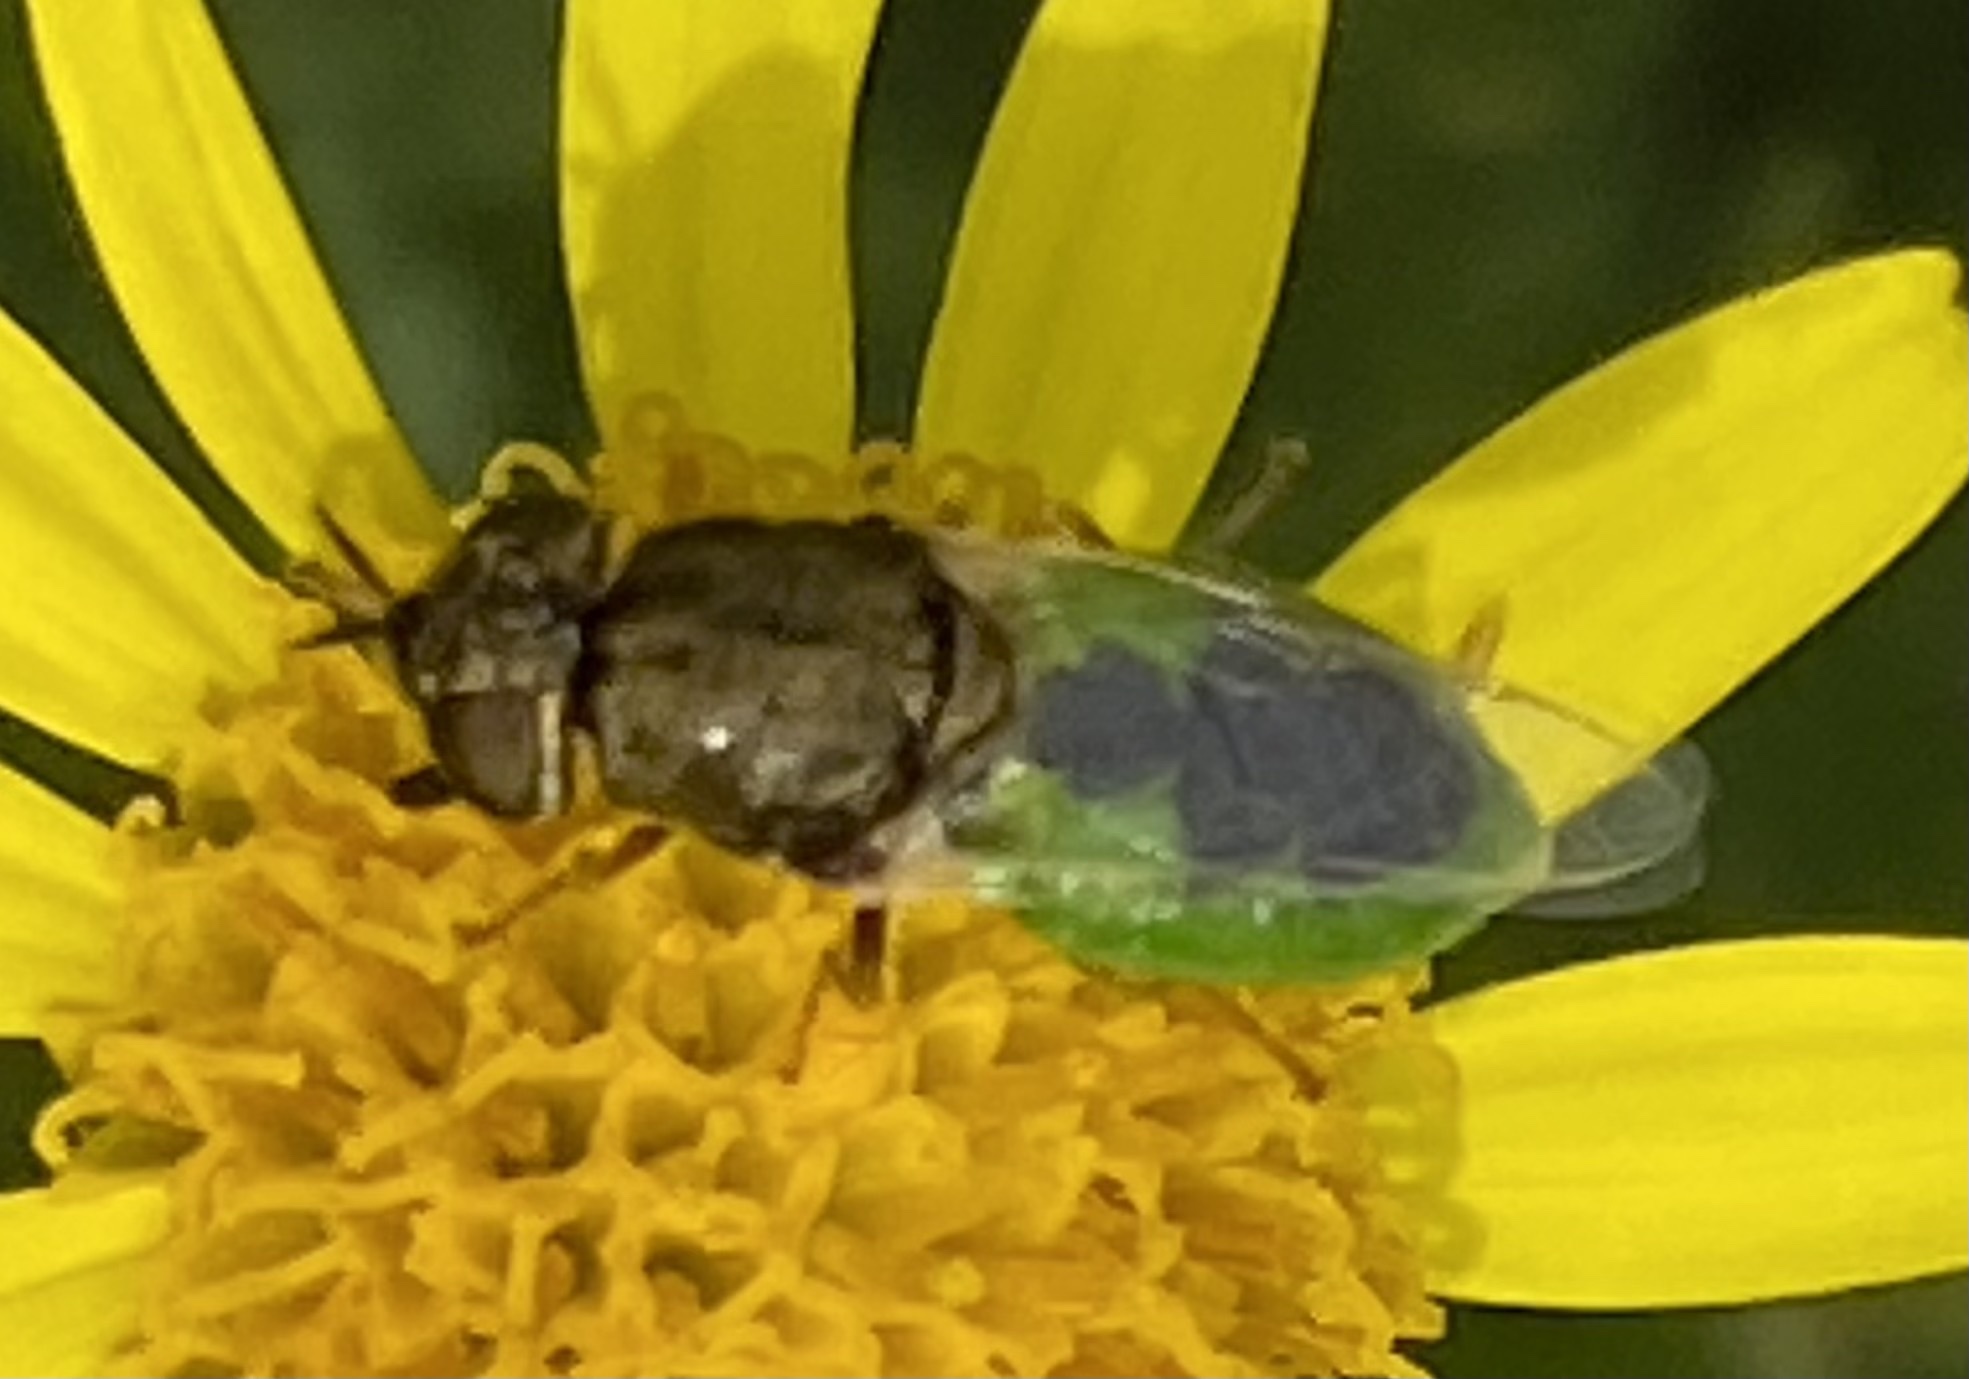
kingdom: Animalia
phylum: Arthropoda
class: Insecta
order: Diptera
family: Stratiomyidae
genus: Oplodontha
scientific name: Oplodontha viridula
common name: Common green colonel
